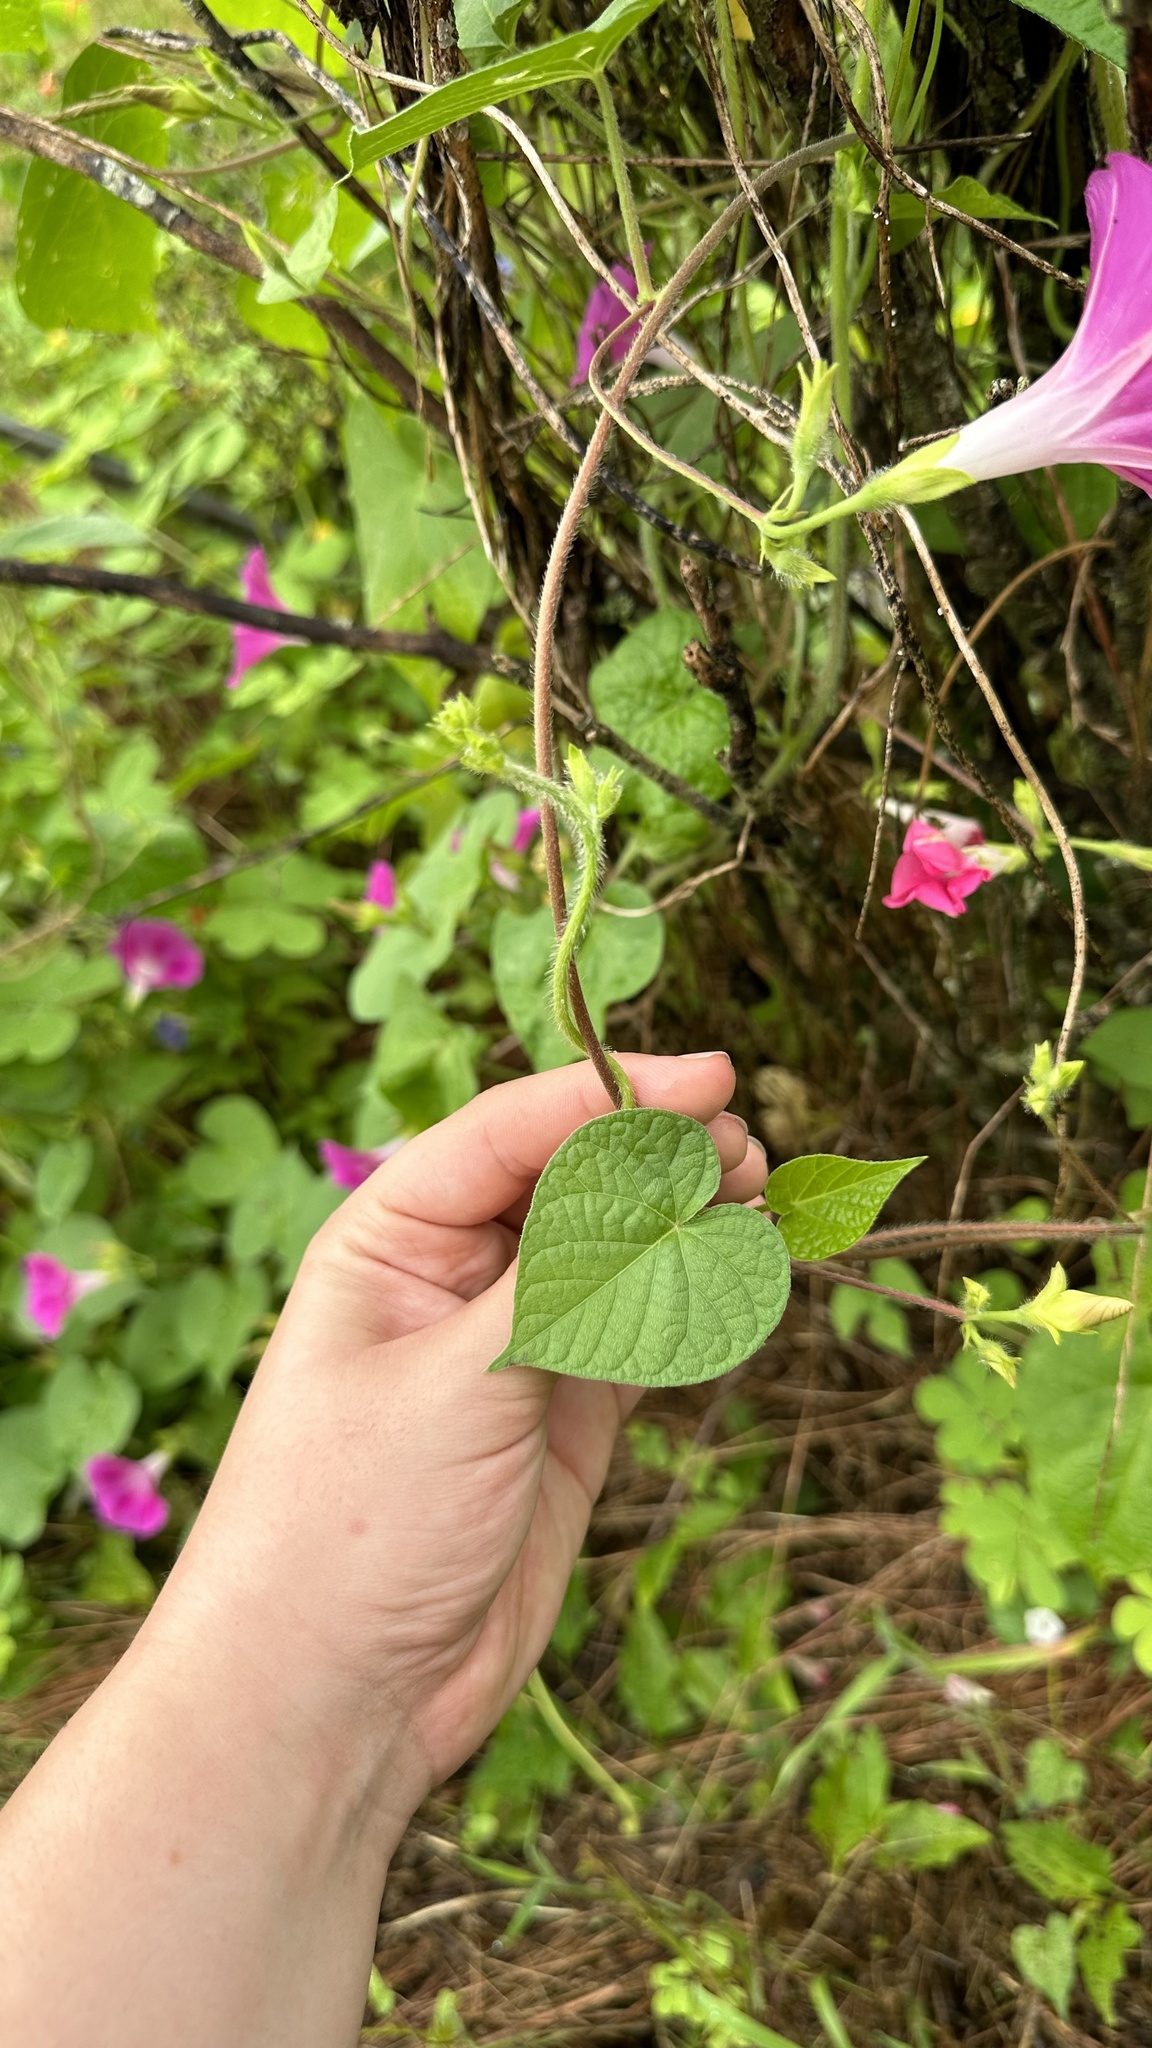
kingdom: Plantae
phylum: Tracheophyta
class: Magnoliopsida
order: Solanales
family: Convolvulaceae
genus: Ipomoea
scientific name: Ipomoea purpurea
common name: Common morning-glory
